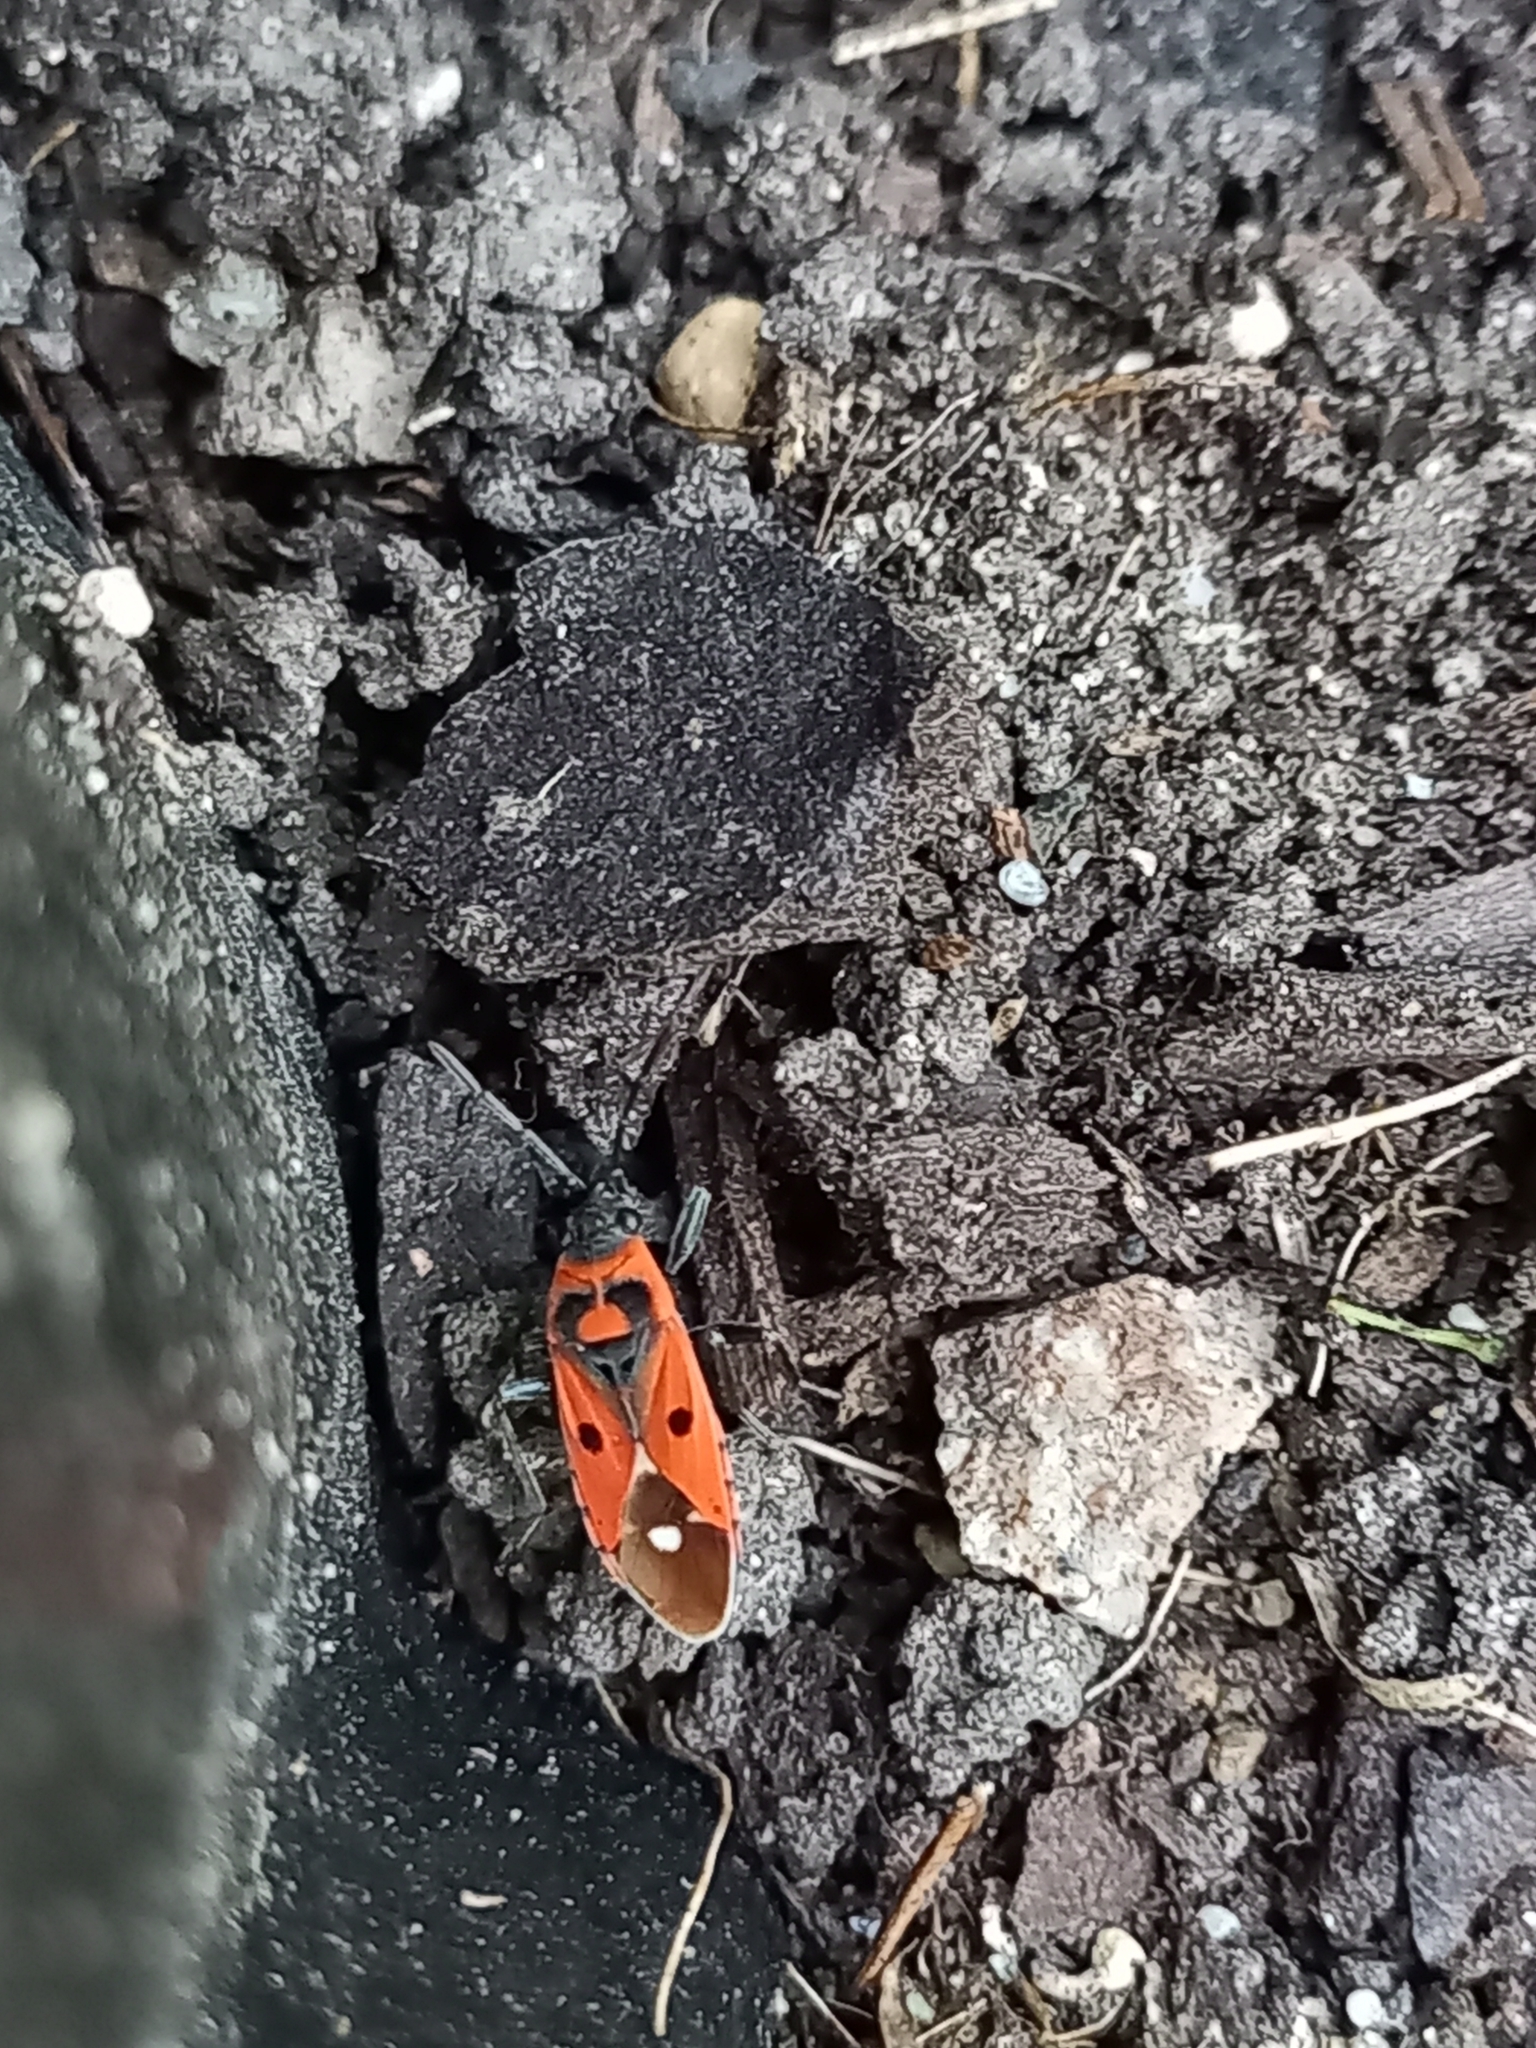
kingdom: Animalia
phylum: Arthropoda
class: Insecta
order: Hemiptera
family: Lygaeidae
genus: Melanocoryphus
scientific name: Melanocoryphus albomaculatus
